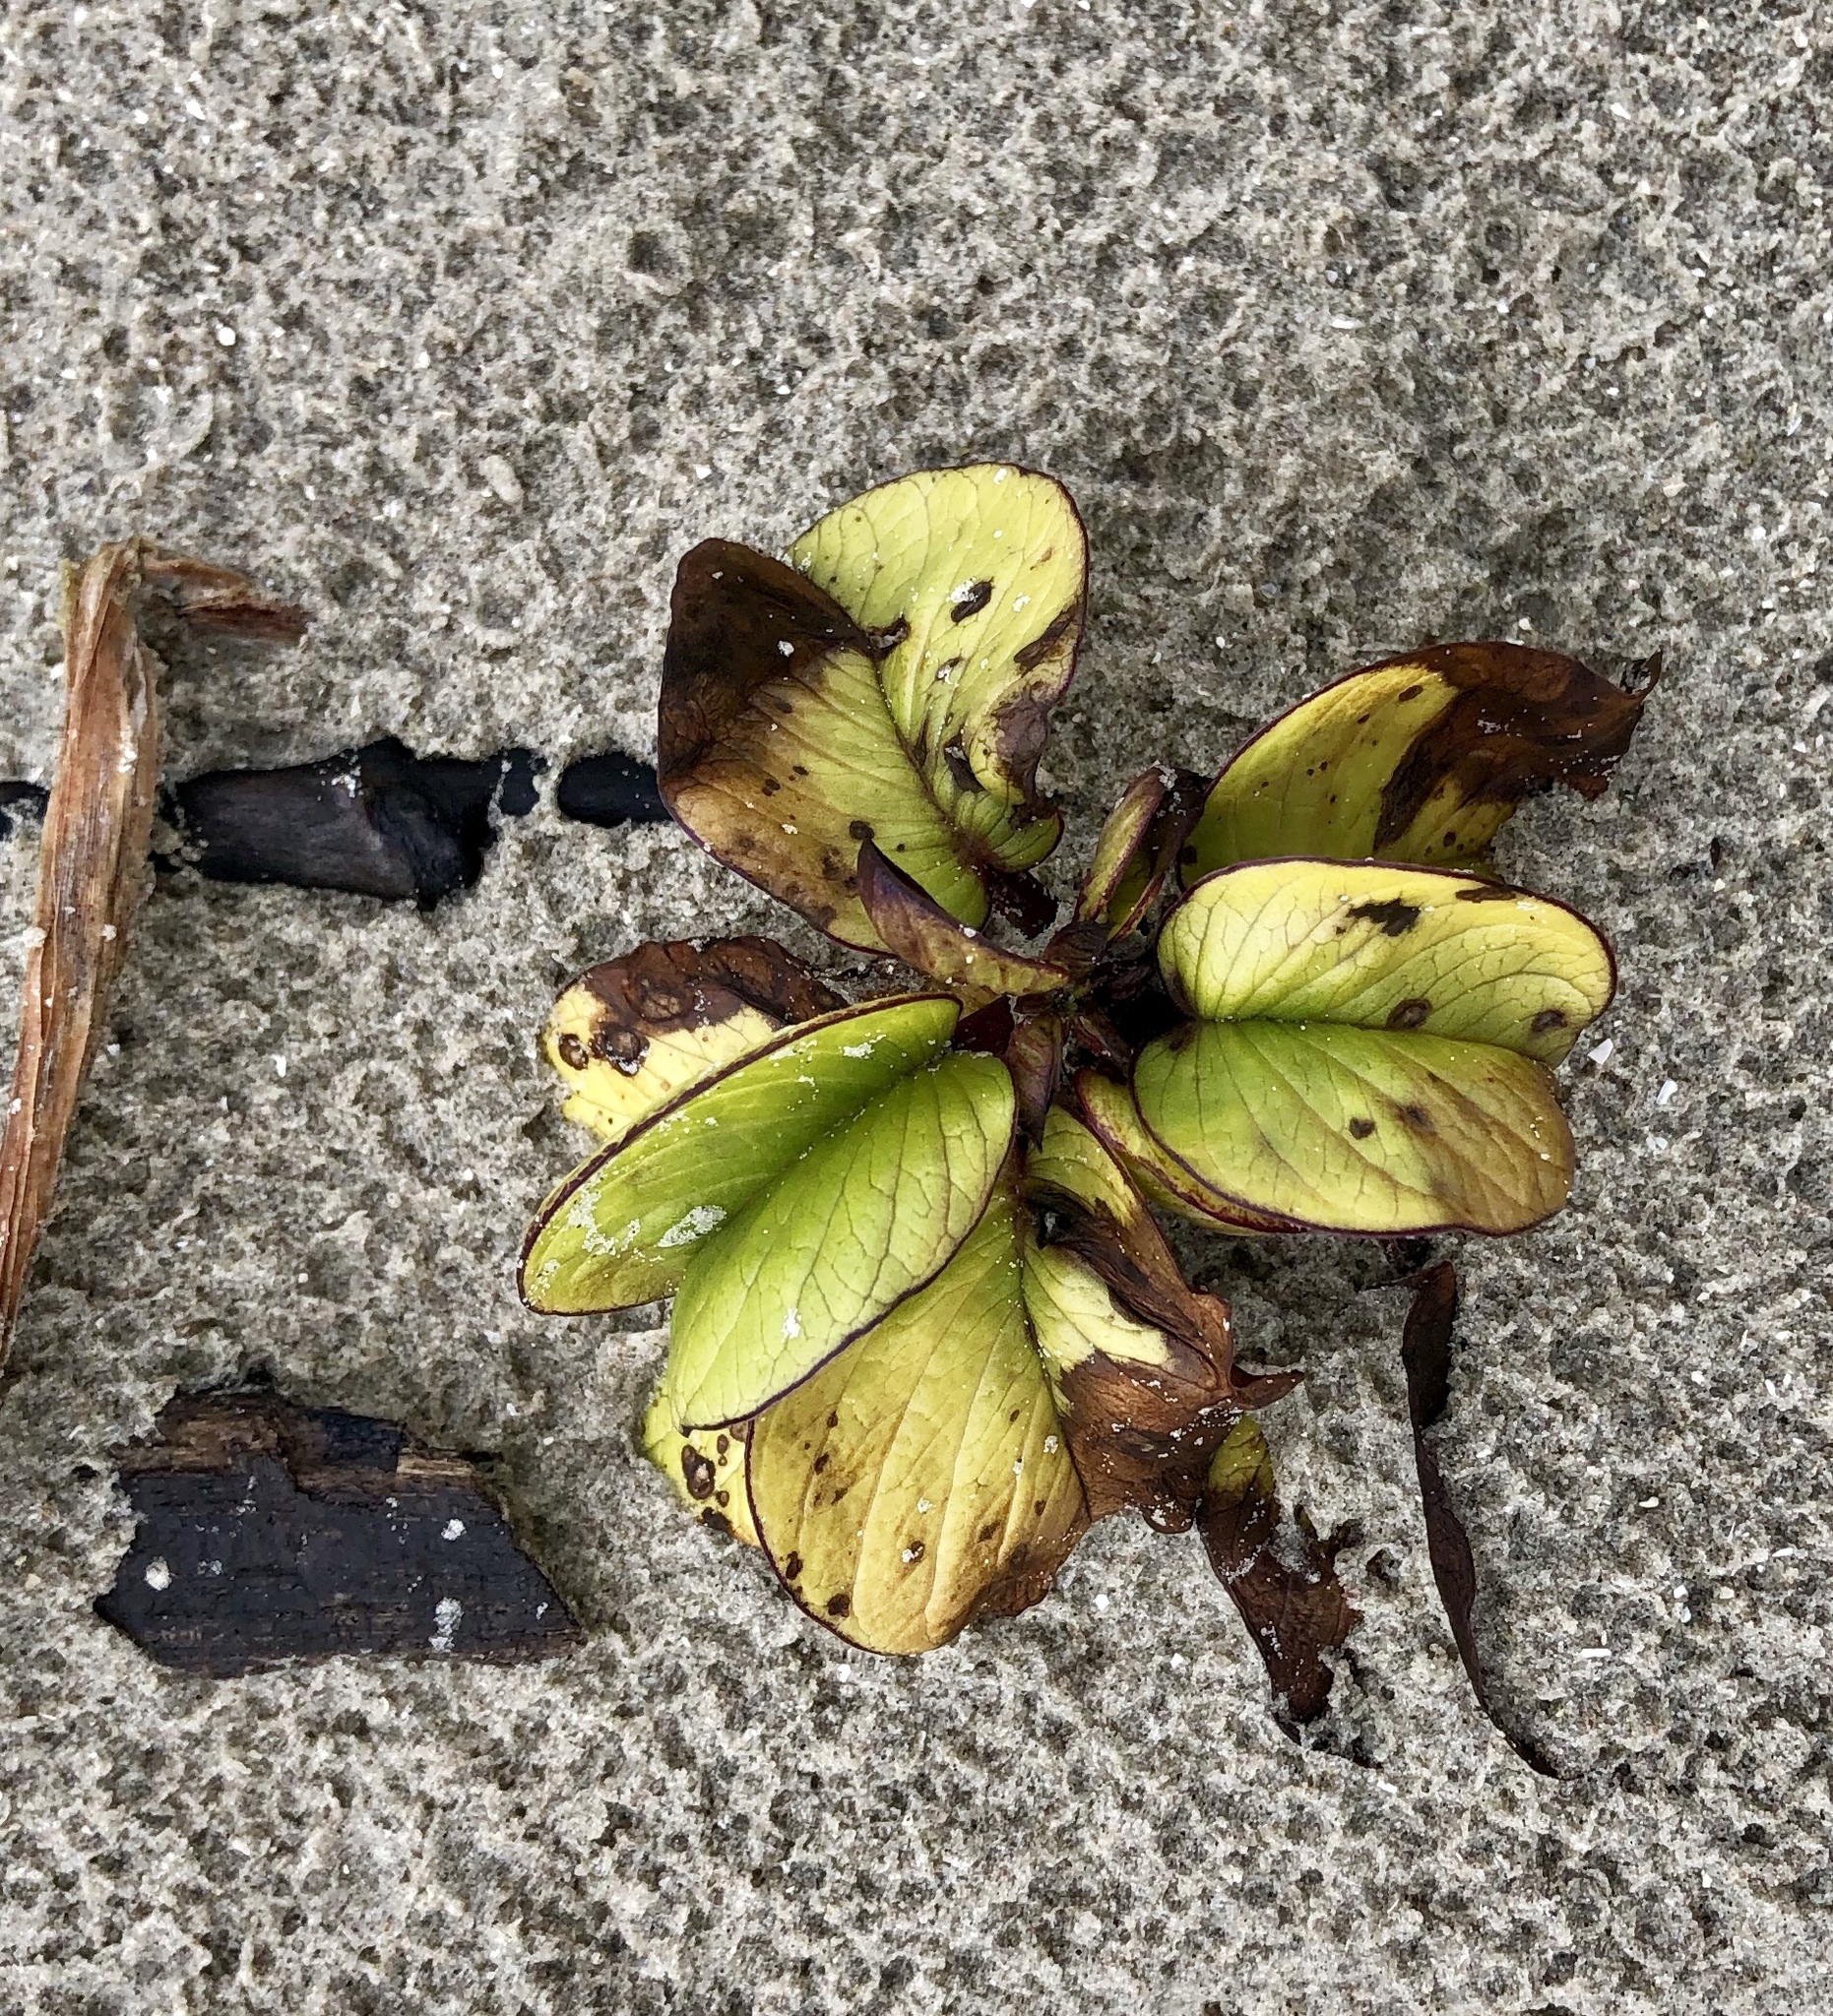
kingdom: Plantae
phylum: Tracheophyta
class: Magnoliopsida
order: Solanales
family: Convolvulaceae
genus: Ipomoea
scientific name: Ipomoea pes-caprae
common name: Beach morning glory
